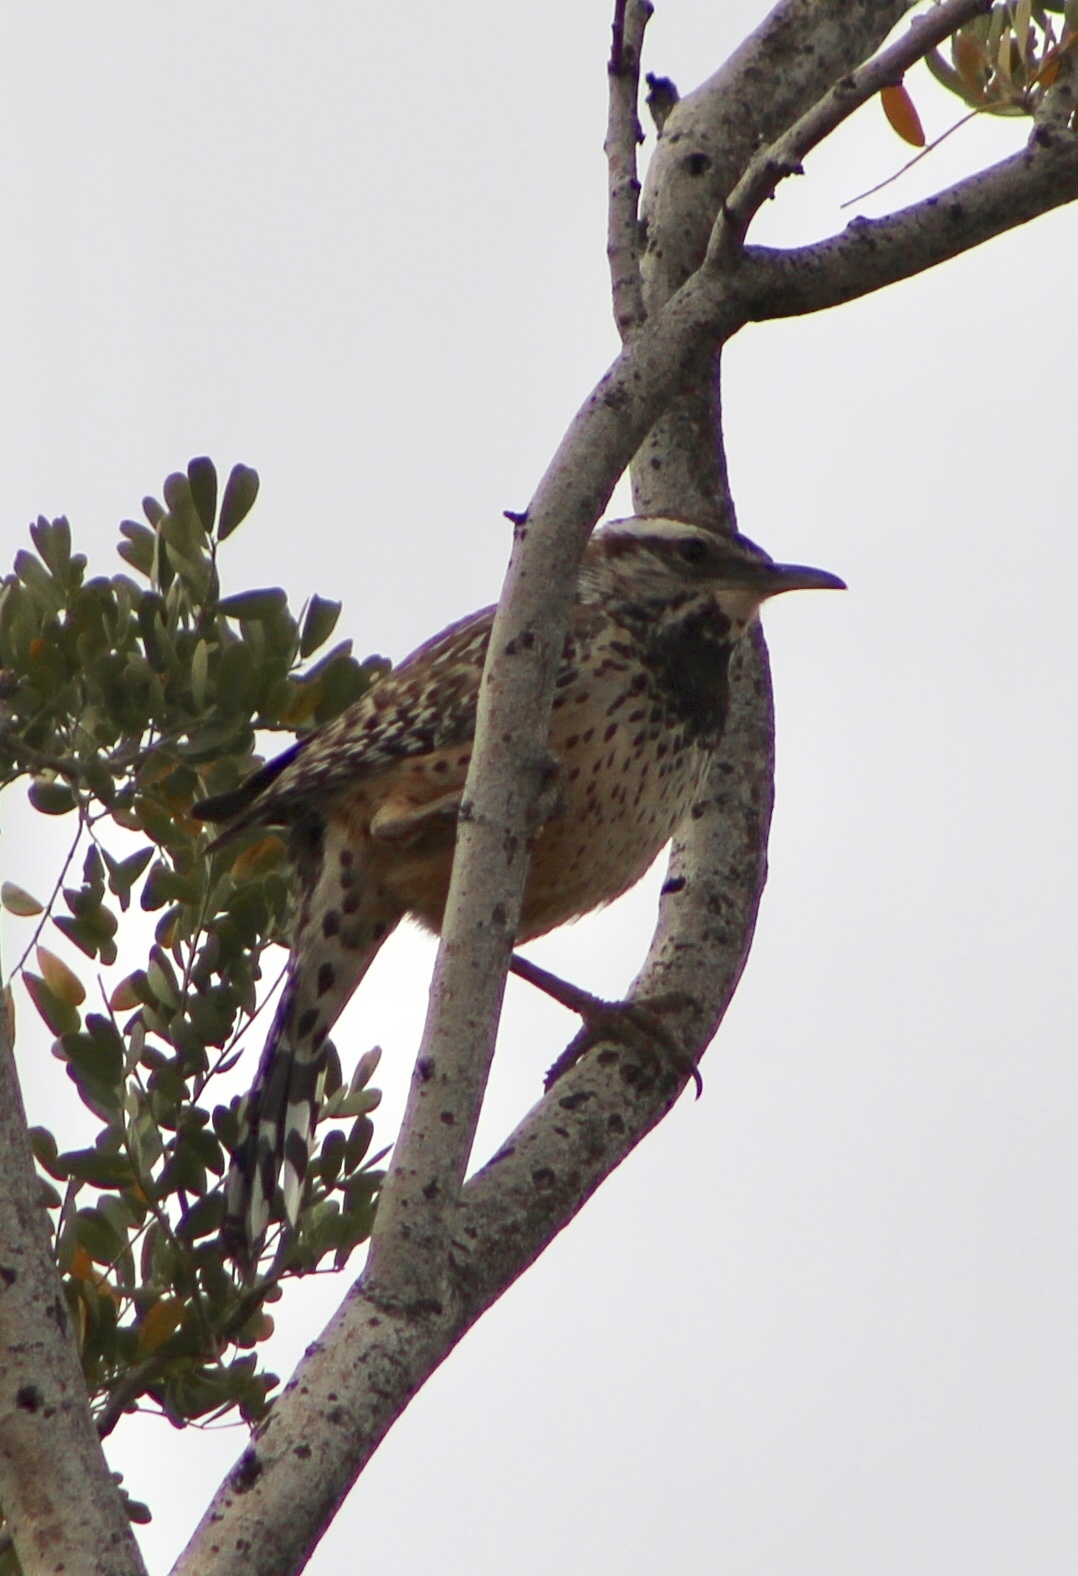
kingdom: Animalia
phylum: Chordata
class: Aves
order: Passeriformes
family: Troglodytidae
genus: Campylorhynchus
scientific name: Campylorhynchus brunneicapillus
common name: Cactus wren
